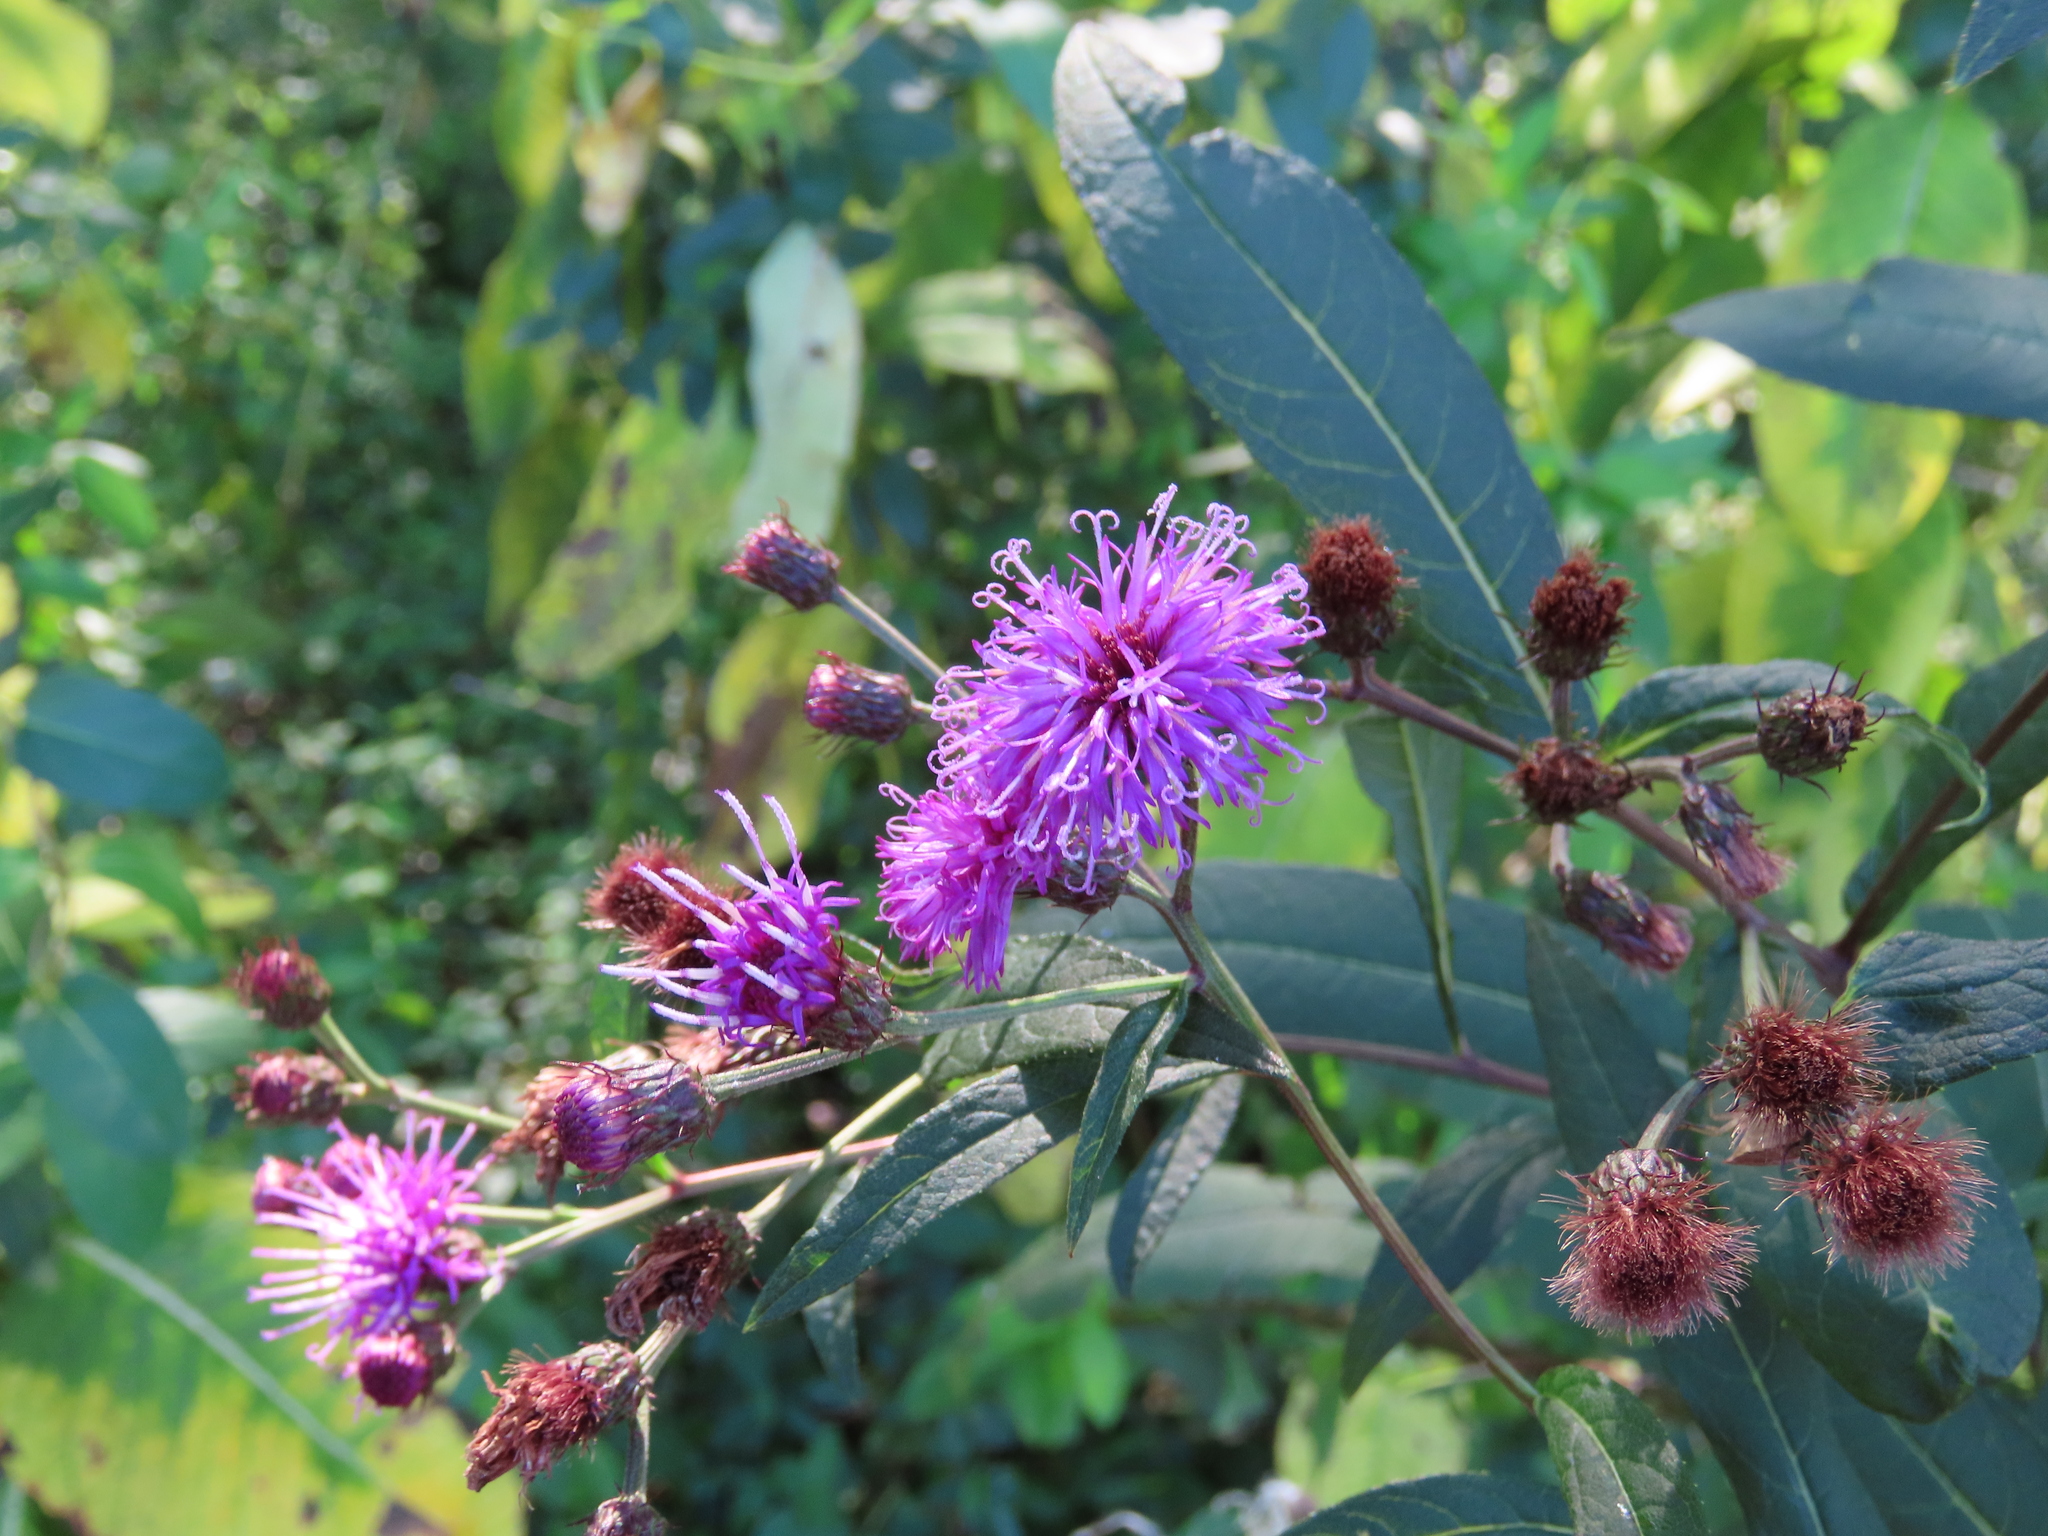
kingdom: Plantae
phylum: Tracheophyta
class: Magnoliopsida
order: Asterales
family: Asteraceae
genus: Vernonia
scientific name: Vernonia noveboracensis
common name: New york ironweed
